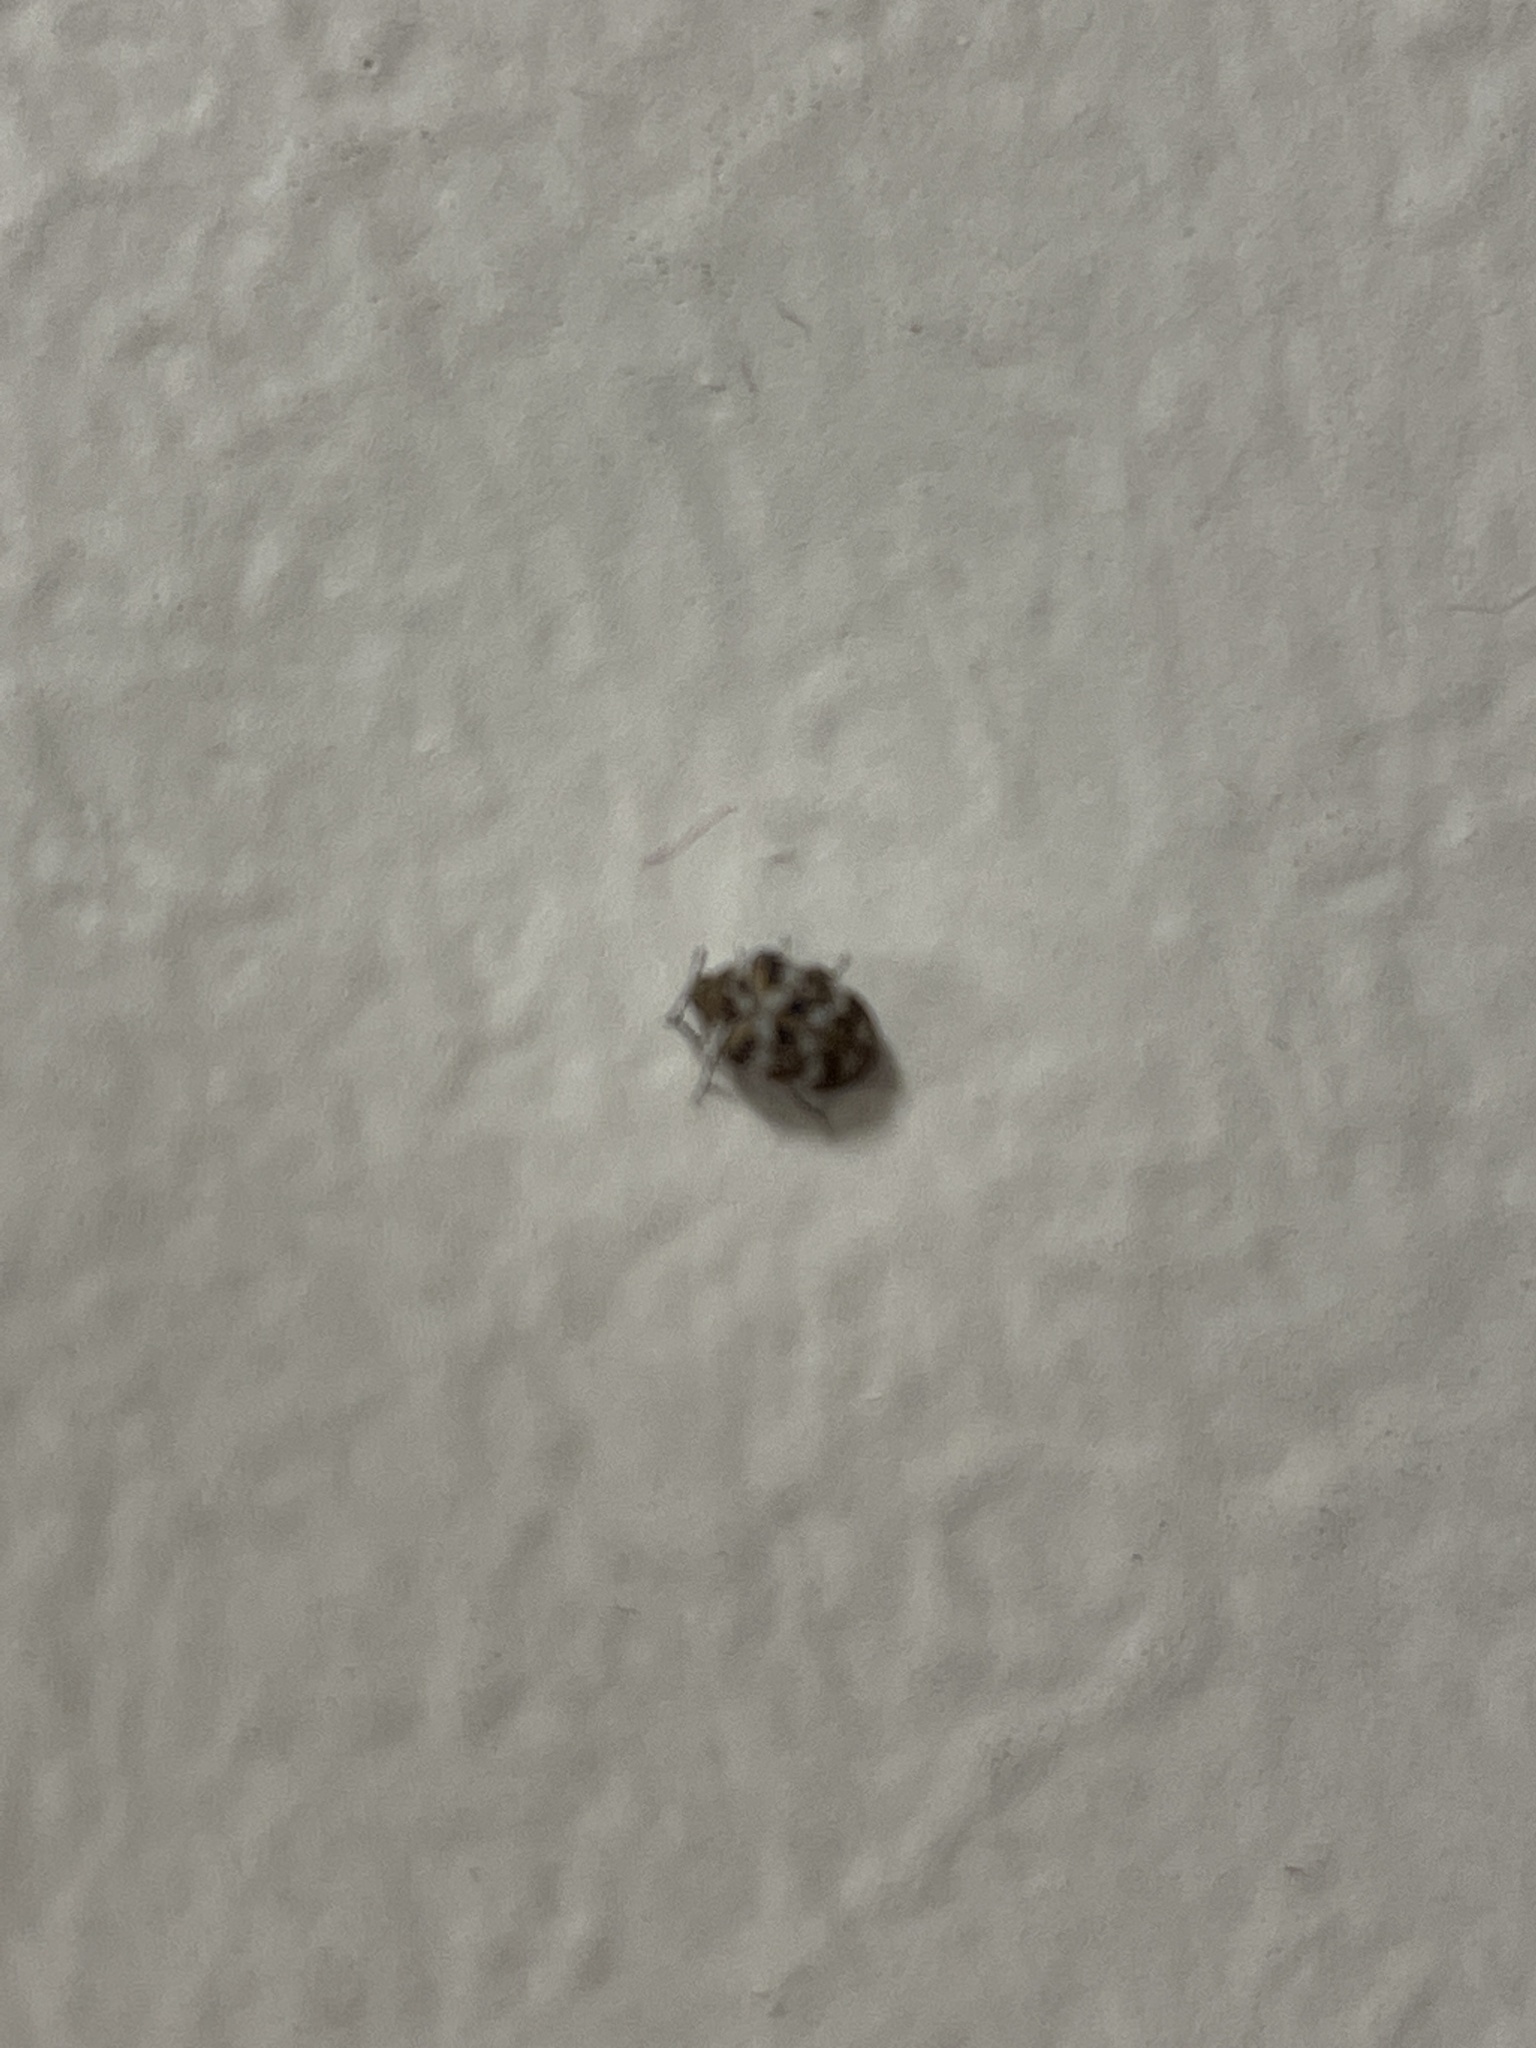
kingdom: Animalia
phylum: Arthropoda
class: Insecta
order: Coleoptera
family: Dermestidae
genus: Anthrenus
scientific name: Anthrenus verbasci
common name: Varied carpet beetle
